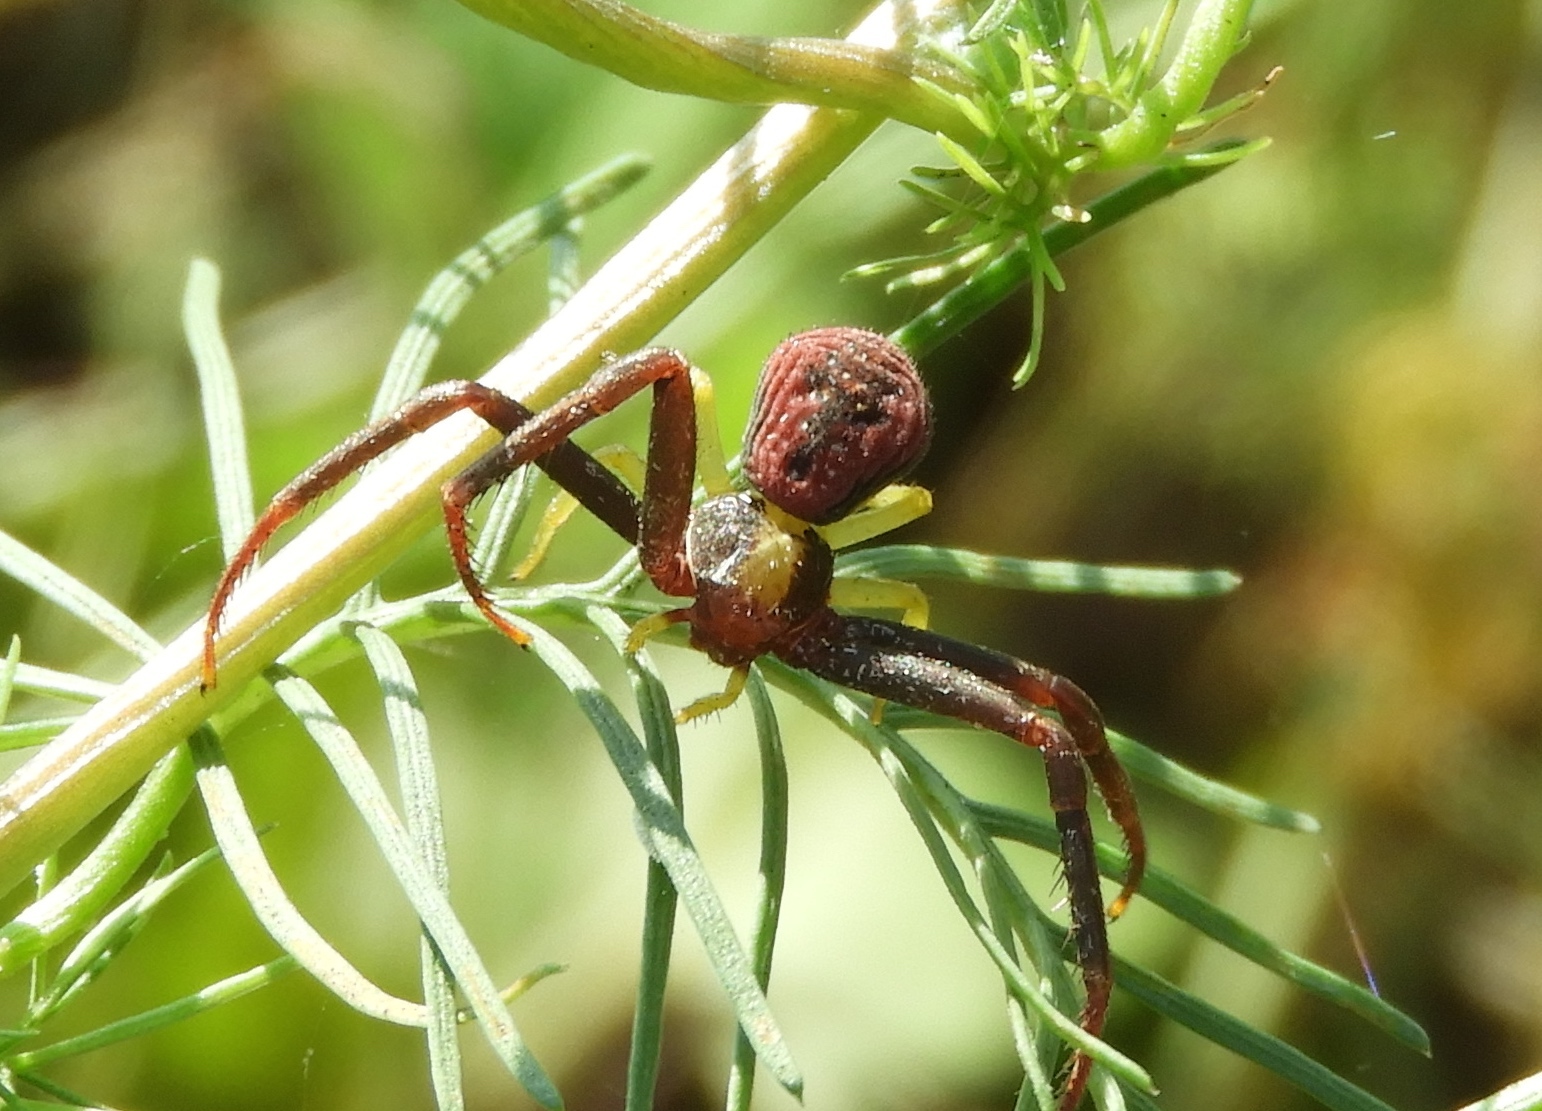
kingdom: Animalia
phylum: Arthropoda
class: Arachnida
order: Araneae
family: Thomisidae
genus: Mecaphesa
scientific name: Mecaphesa
